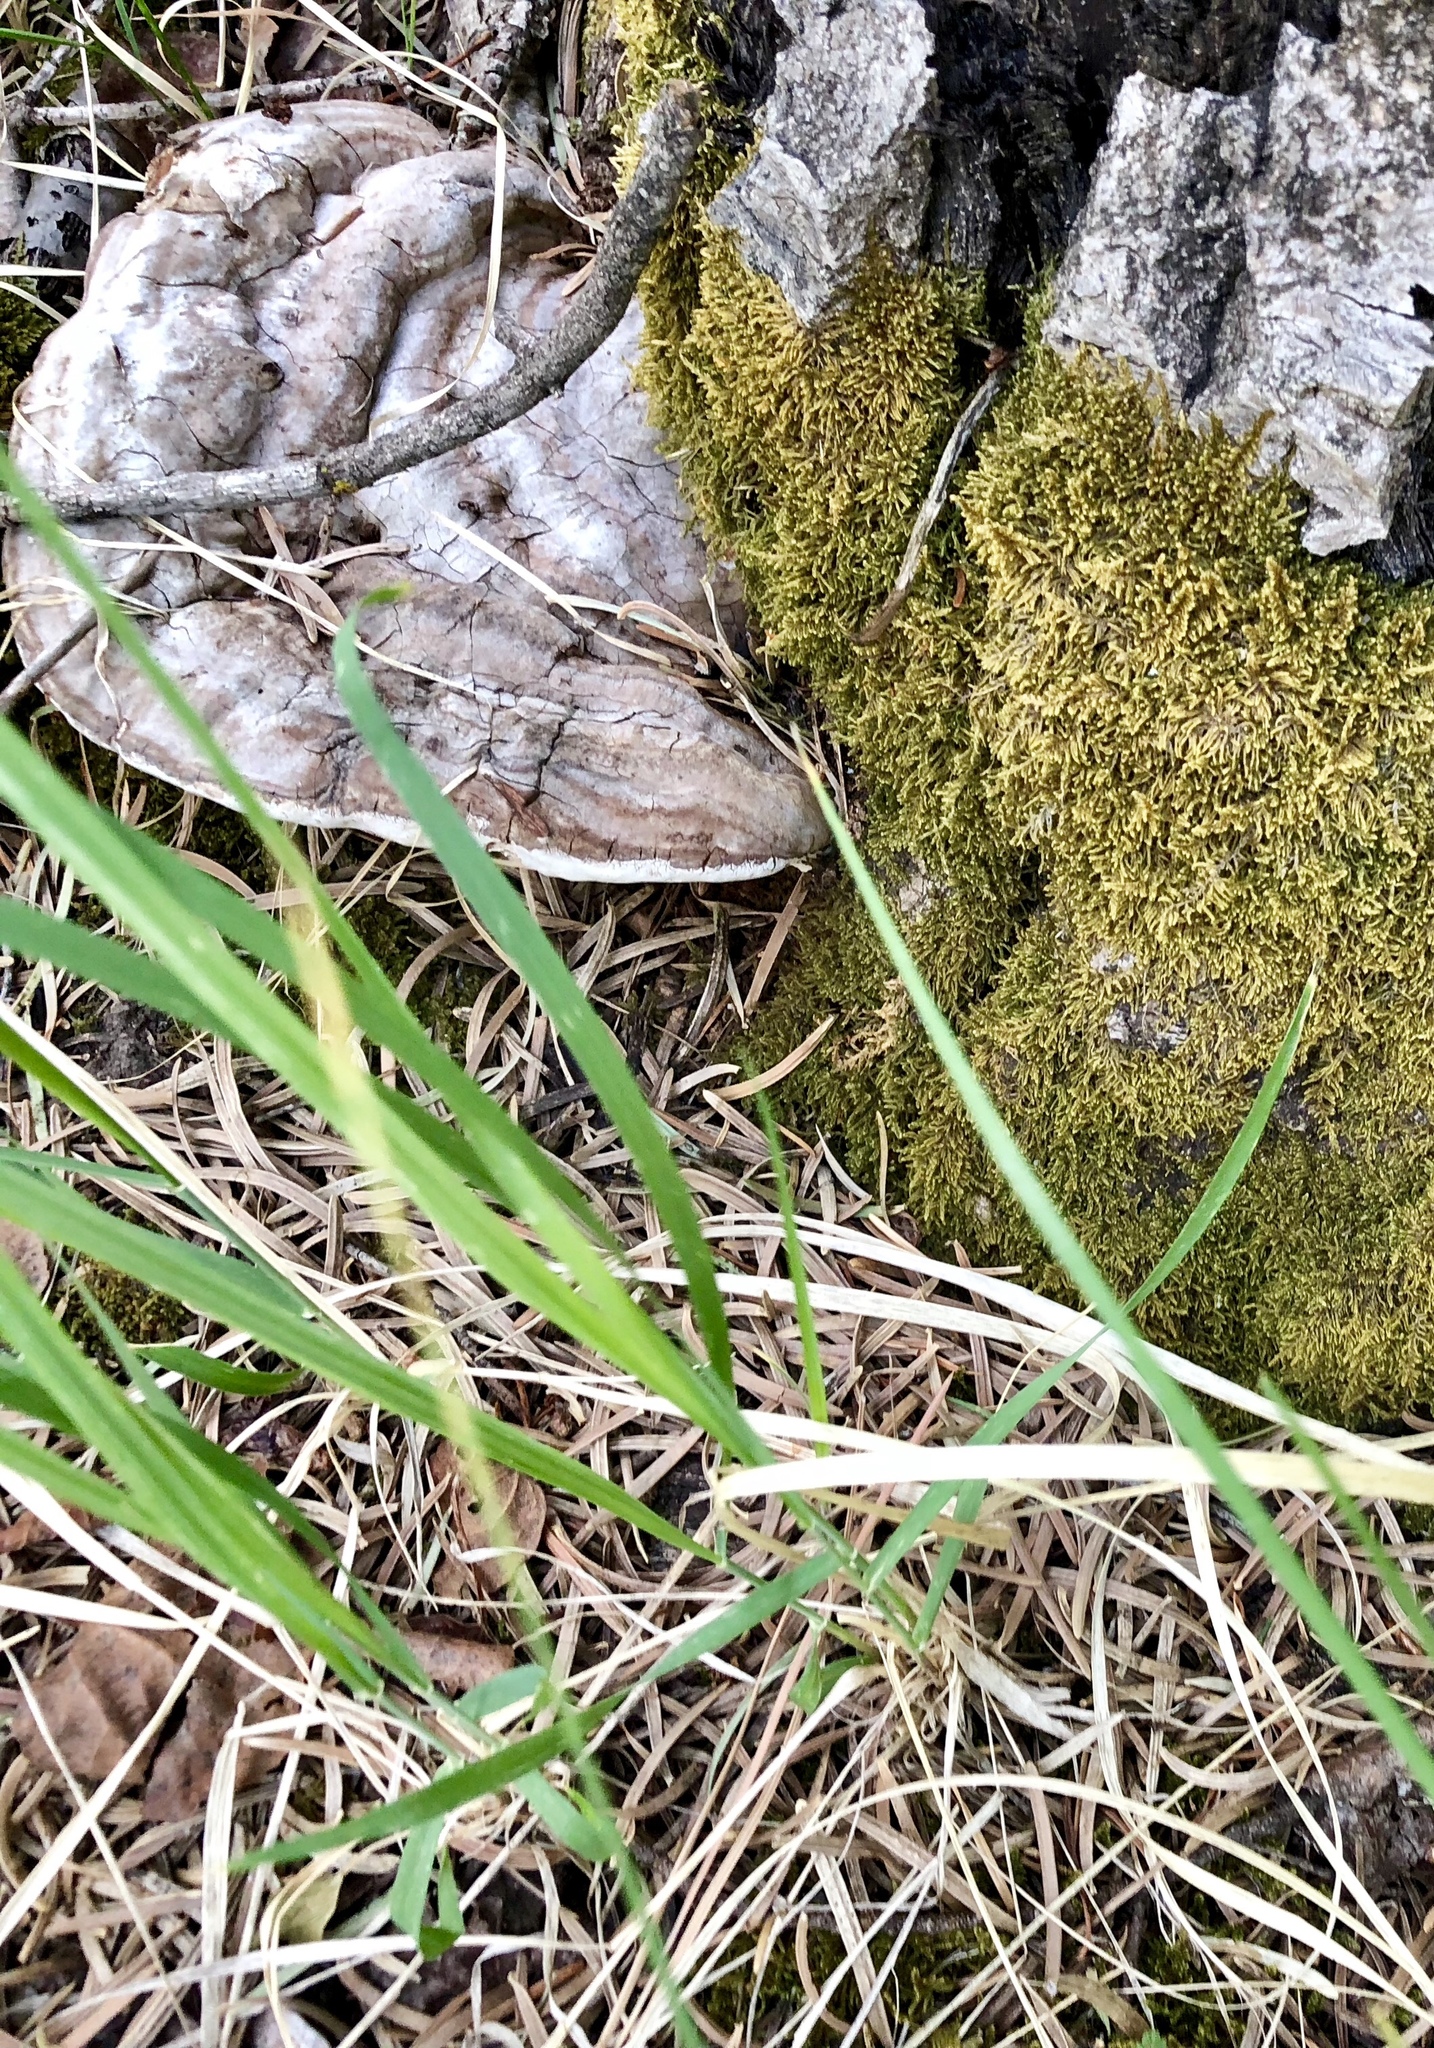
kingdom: Fungi
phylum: Basidiomycota
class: Agaricomycetes
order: Polyporales
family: Polyporaceae
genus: Ganoderma
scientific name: Ganoderma applanatum
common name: Artist's bracket
